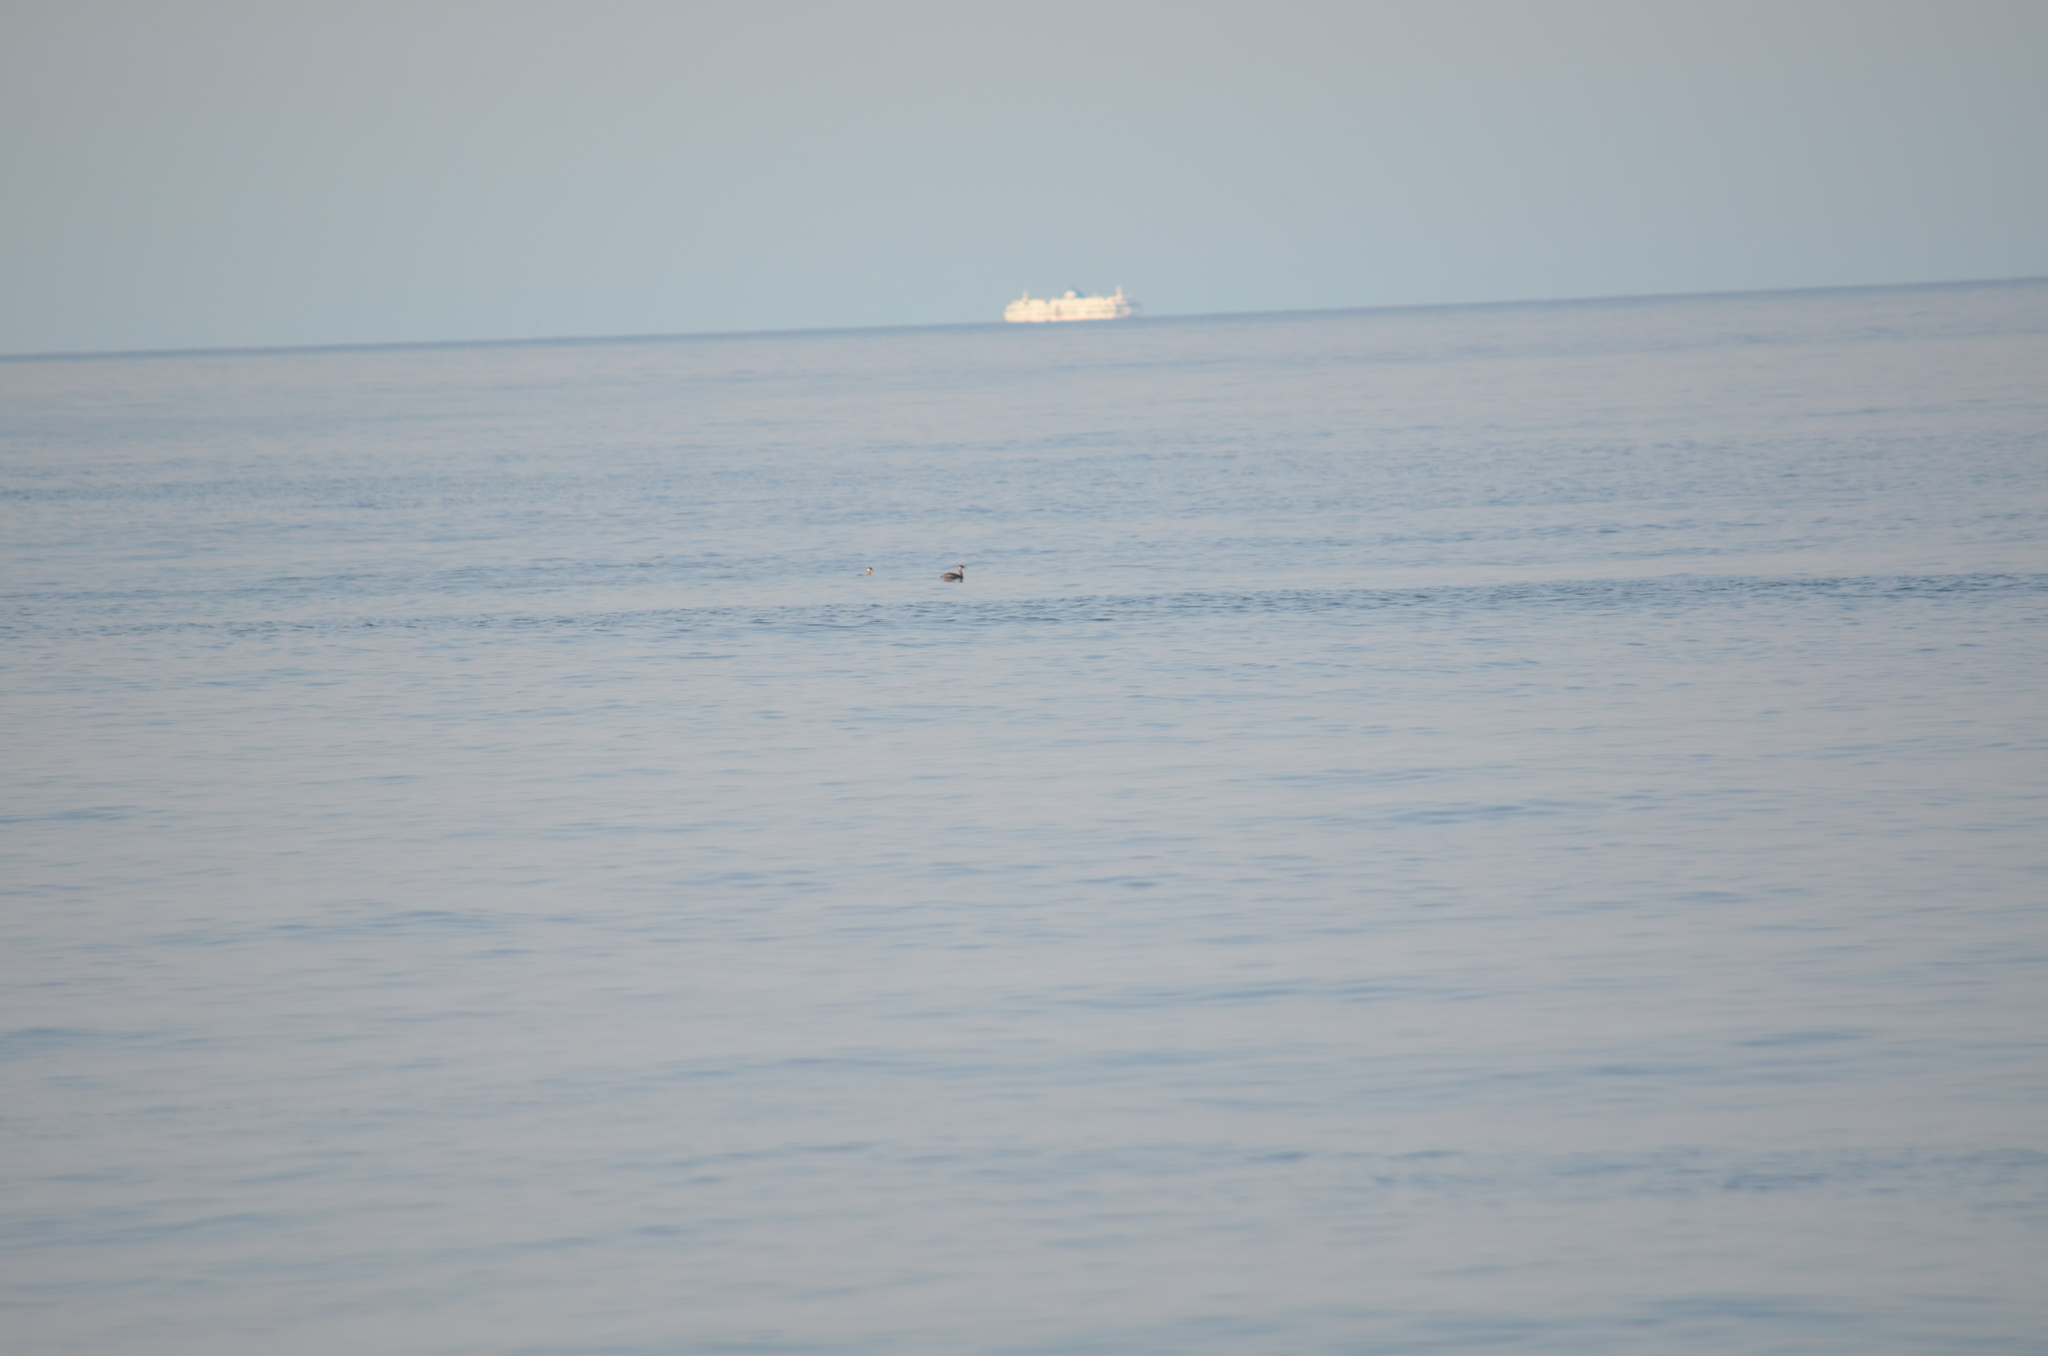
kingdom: Animalia
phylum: Chordata
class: Aves
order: Podicipediformes
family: Podicipedidae
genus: Podiceps
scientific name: Podiceps grisegena
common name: Red-necked grebe
